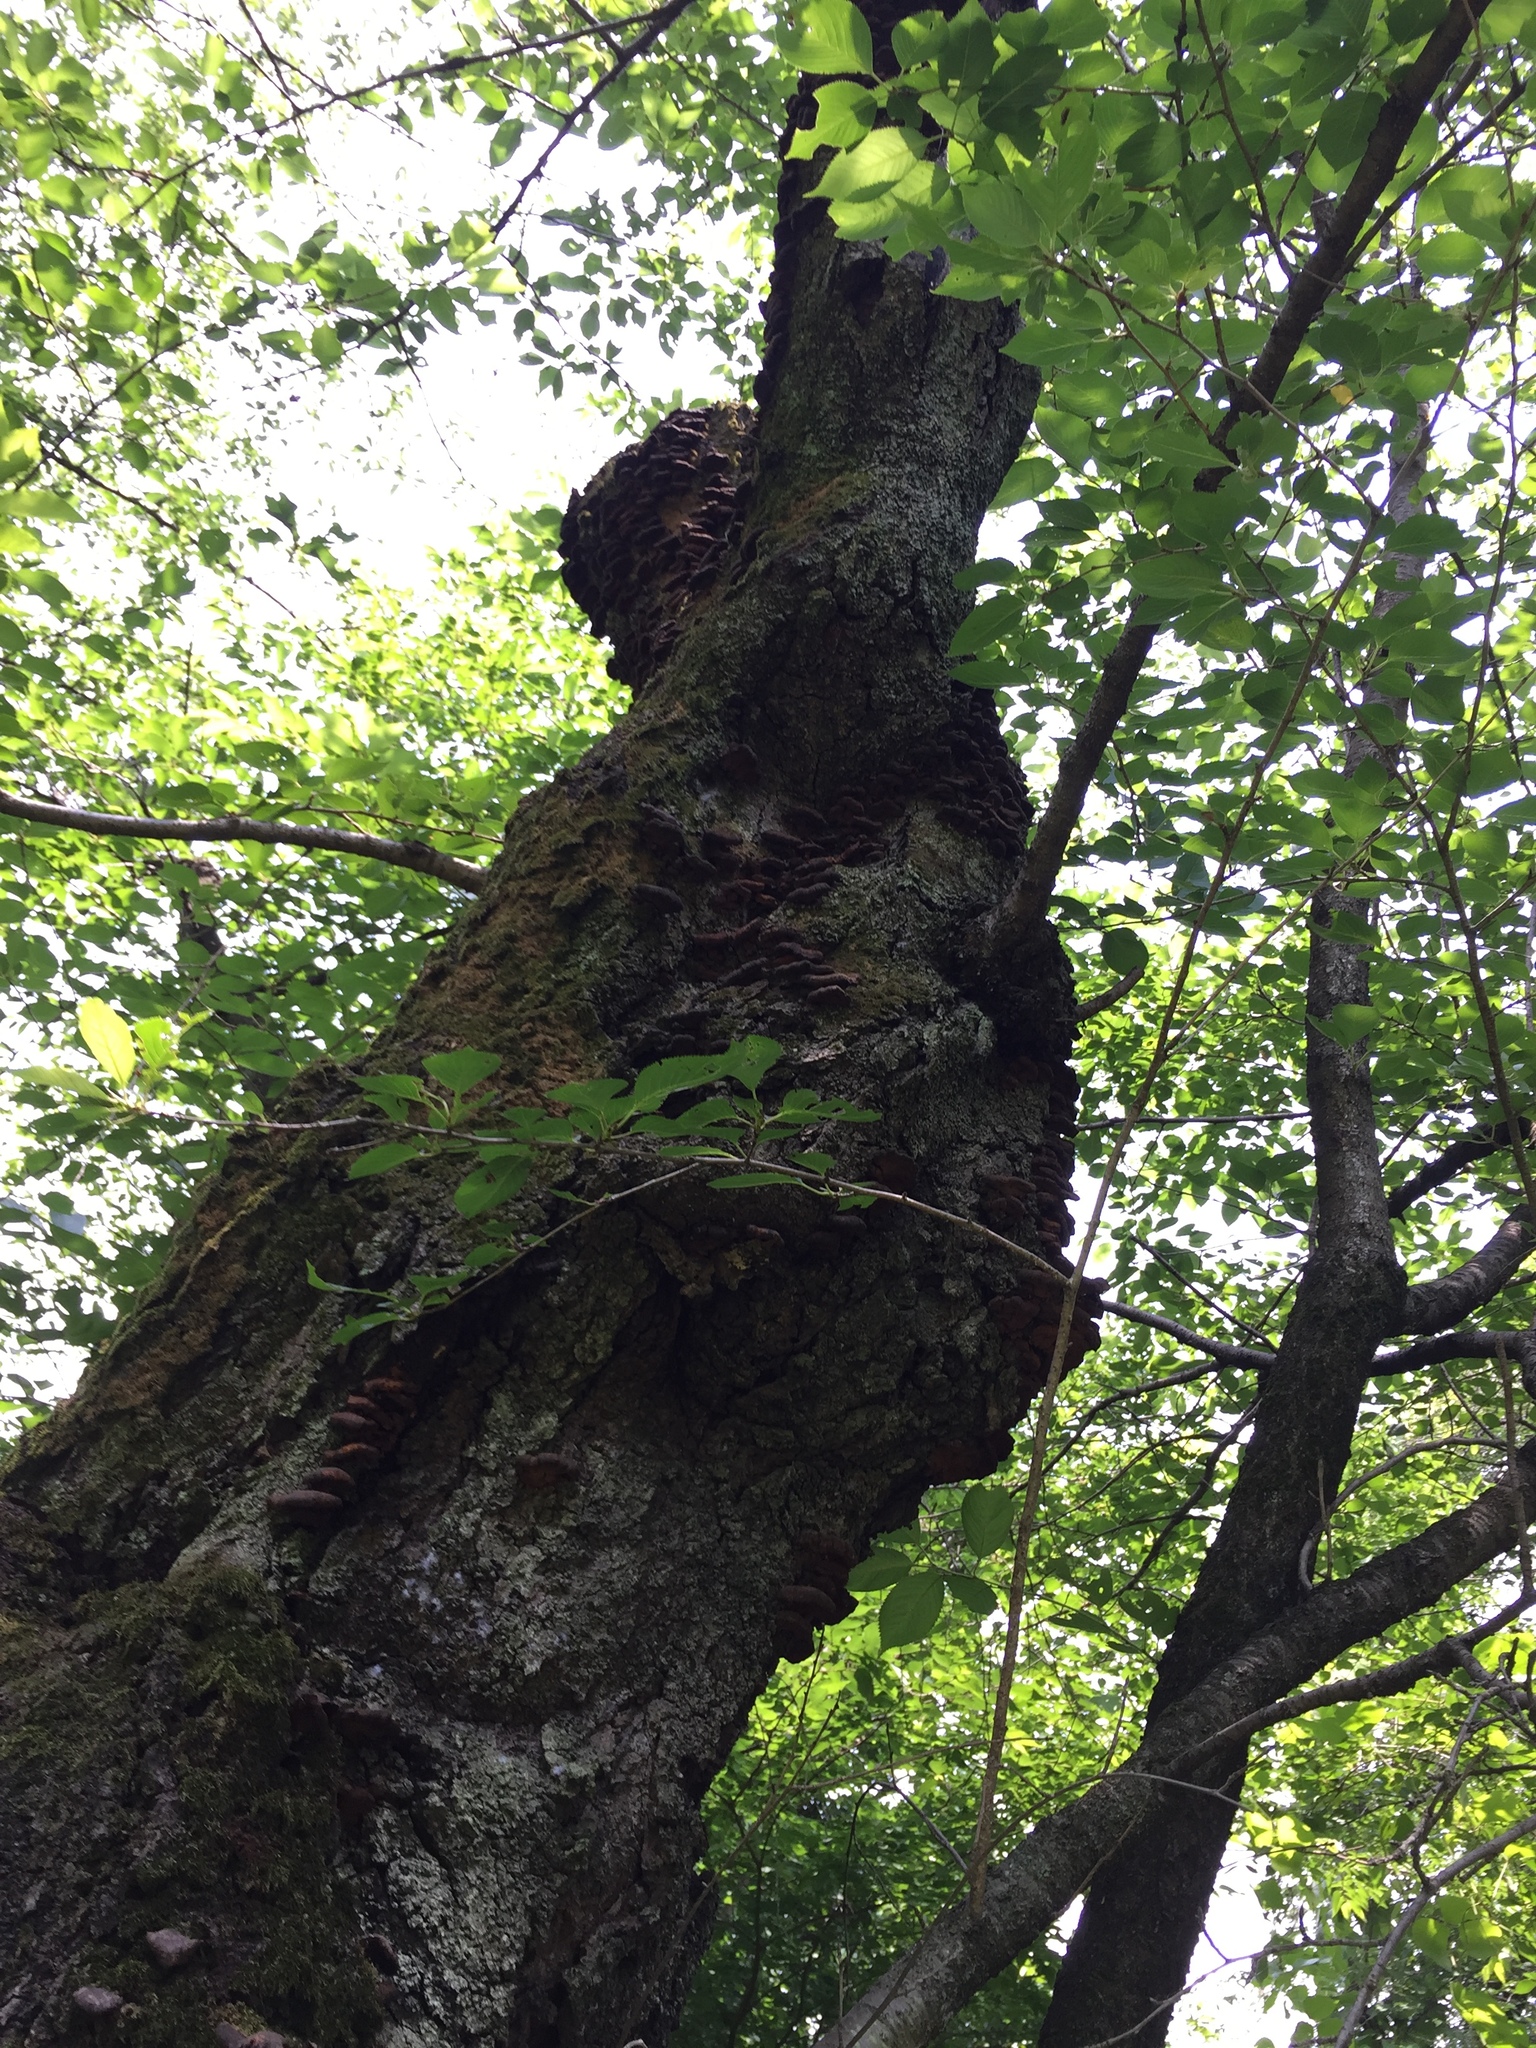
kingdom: Fungi
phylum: Basidiomycota
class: Agaricomycetes
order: Hymenochaetales
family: Hymenochaetaceae
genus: Inocutis
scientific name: Inocutis mikadoi
